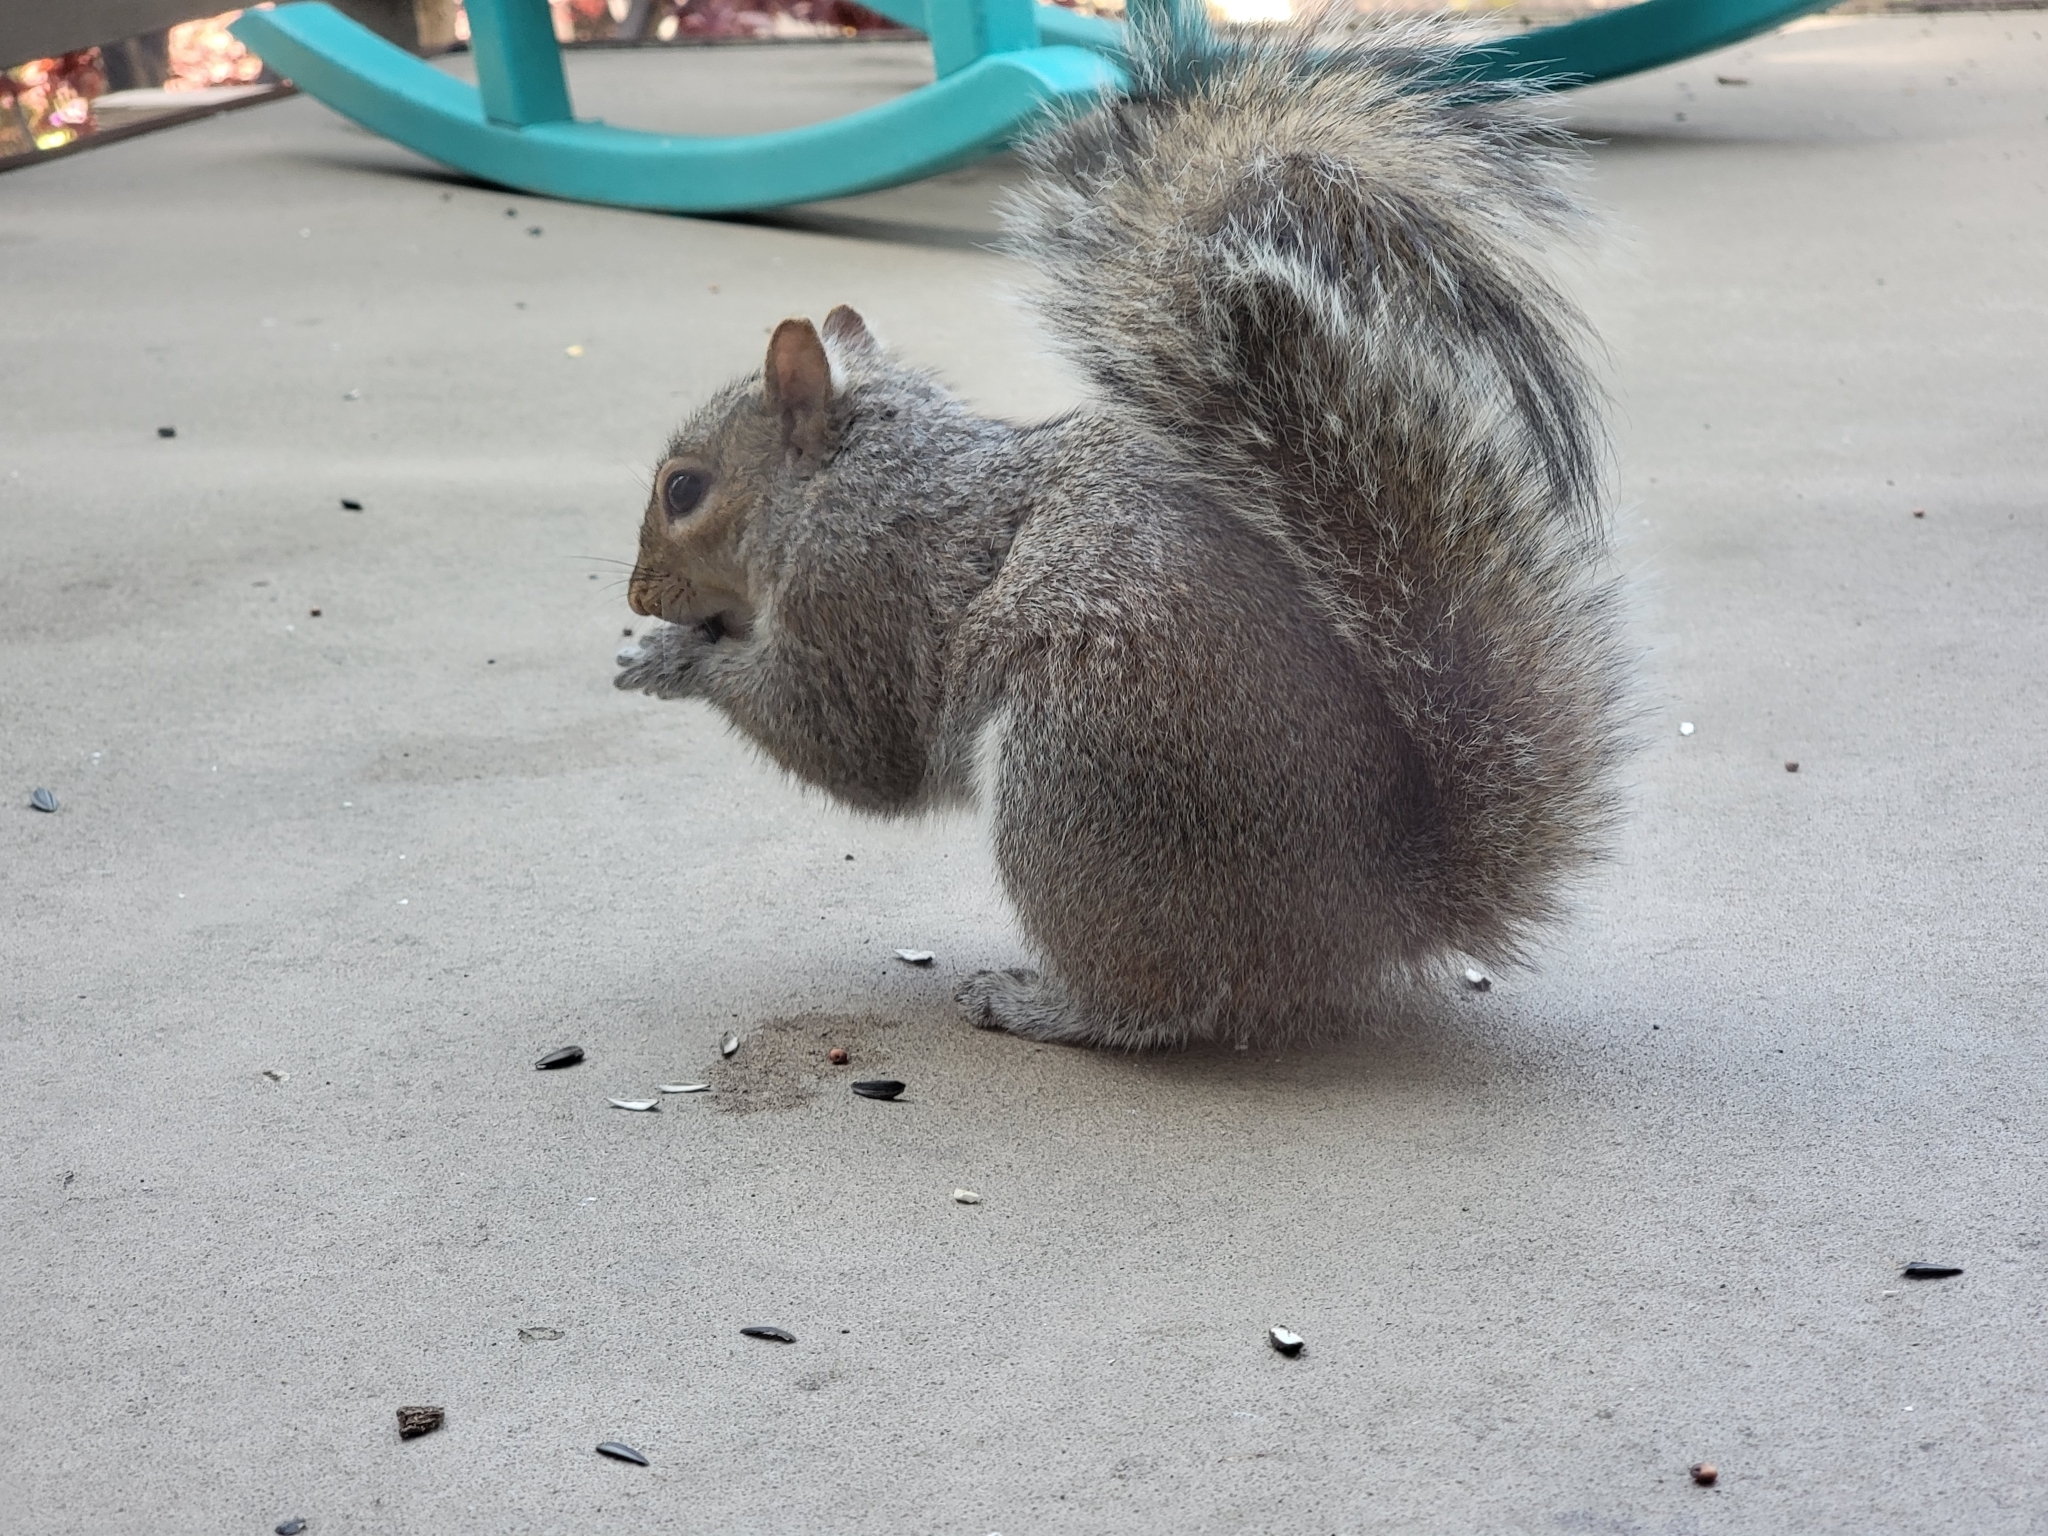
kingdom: Animalia
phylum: Chordata
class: Mammalia
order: Rodentia
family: Sciuridae
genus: Sciurus
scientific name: Sciurus carolinensis
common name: Eastern gray squirrel
